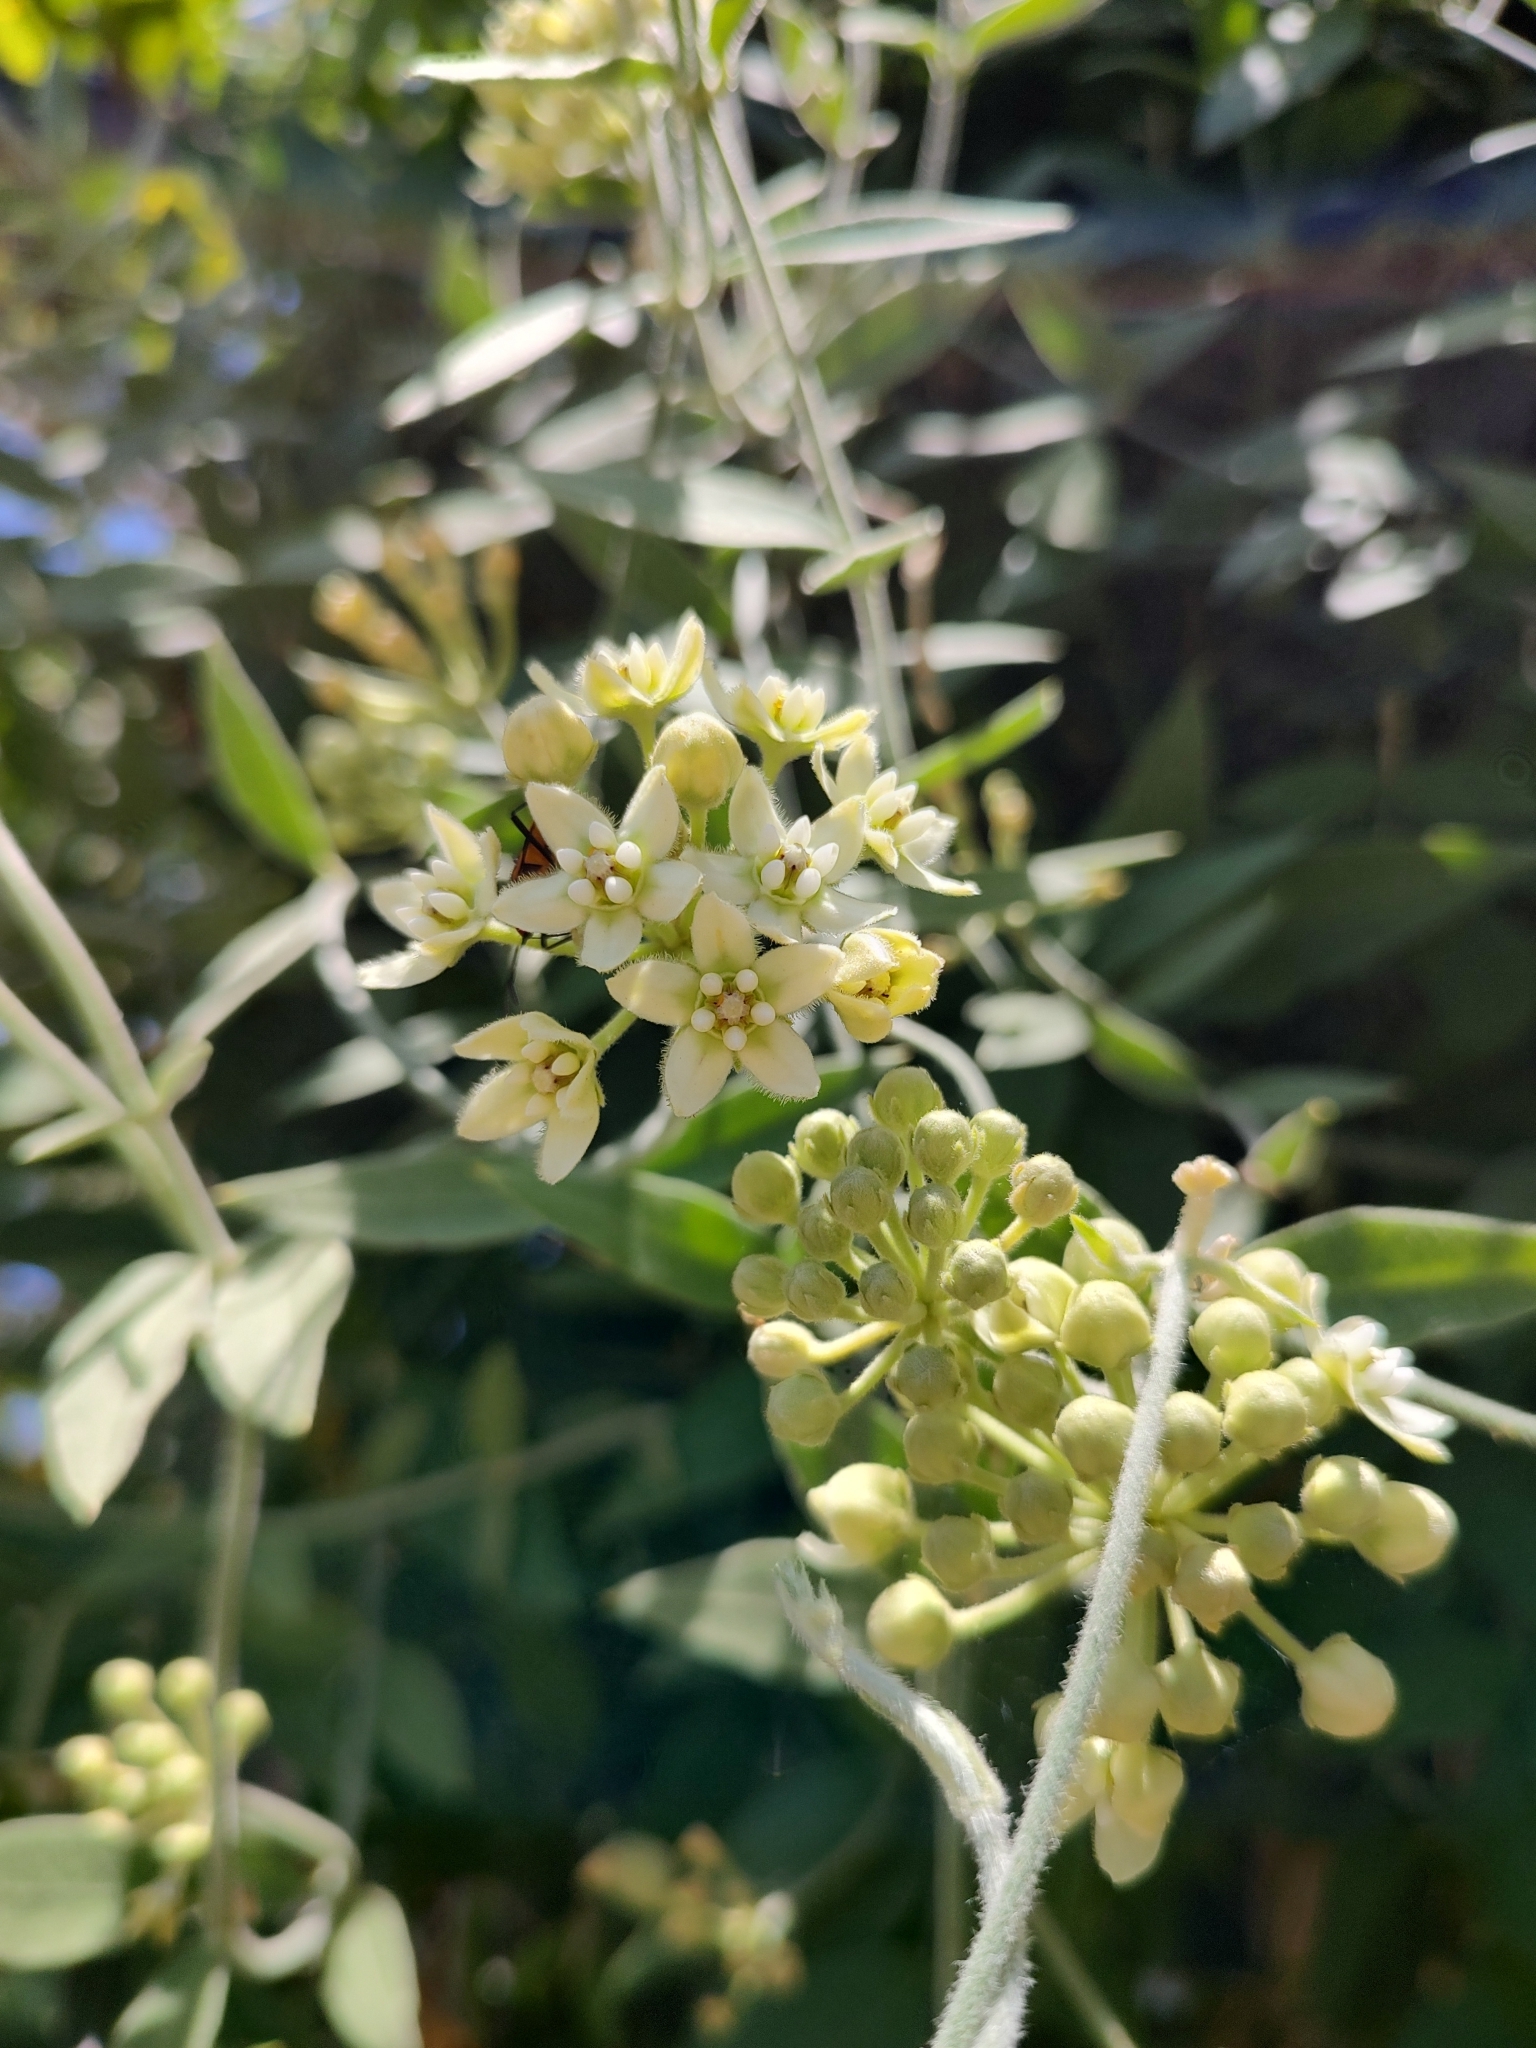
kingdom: Plantae
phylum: Tracheophyta
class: Magnoliopsida
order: Gentianales
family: Apocynaceae
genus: Funastrum
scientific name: Funastrum clausum
